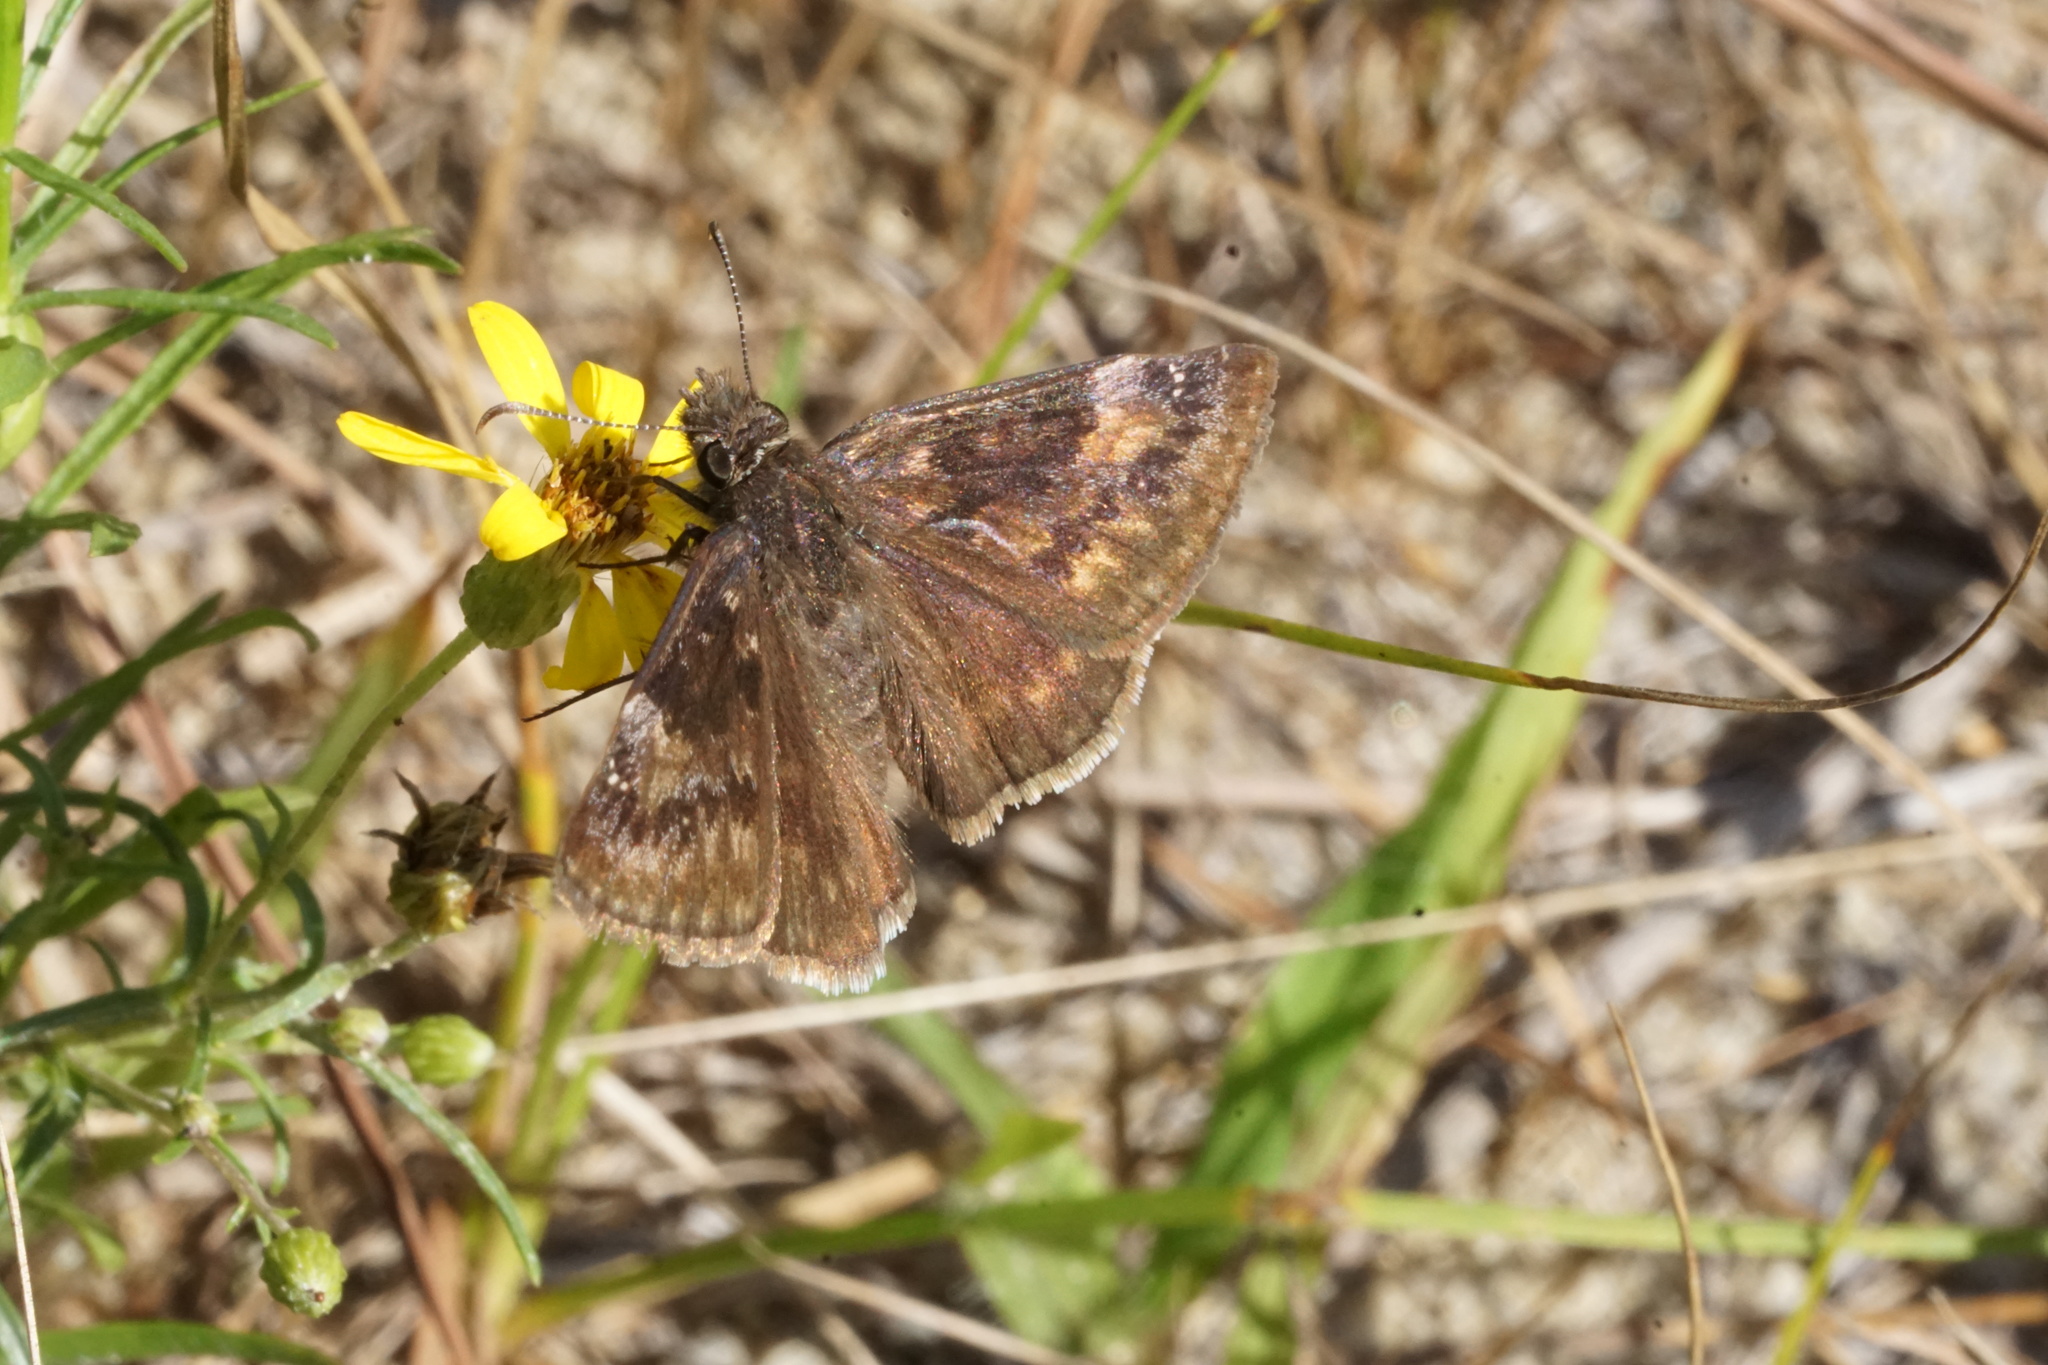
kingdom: Animalia
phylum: Arthropoda
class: Insecta
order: Lepidoptera
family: Hesperiidae
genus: Erynnis
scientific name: Erynnis baptisiae
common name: Wild indigo duskywing
